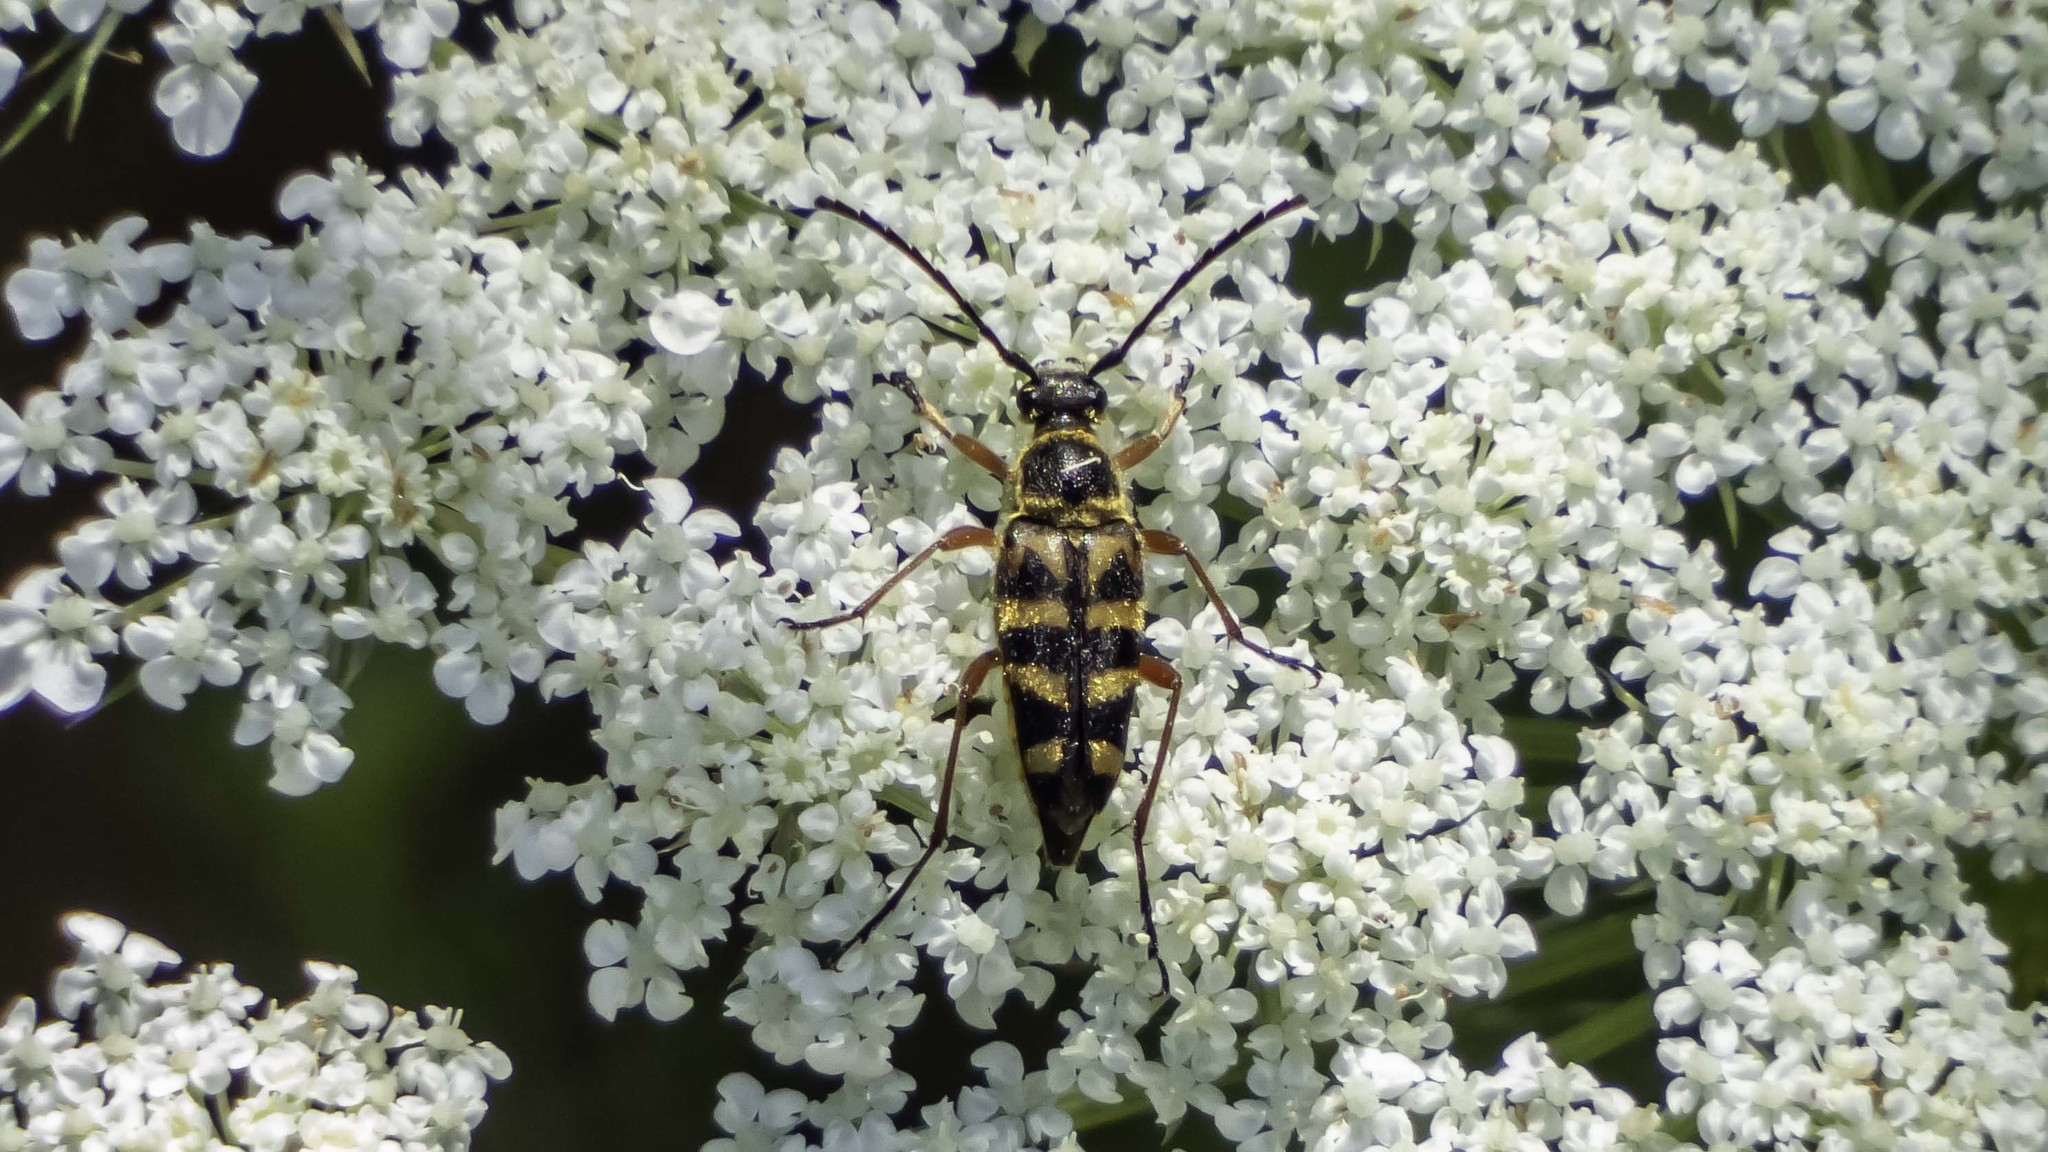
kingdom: Animalia
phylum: Arthropoda
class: Insecta
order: Coleoptera
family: Cerambycidae
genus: Typocerus
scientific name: Typocerus zebra
